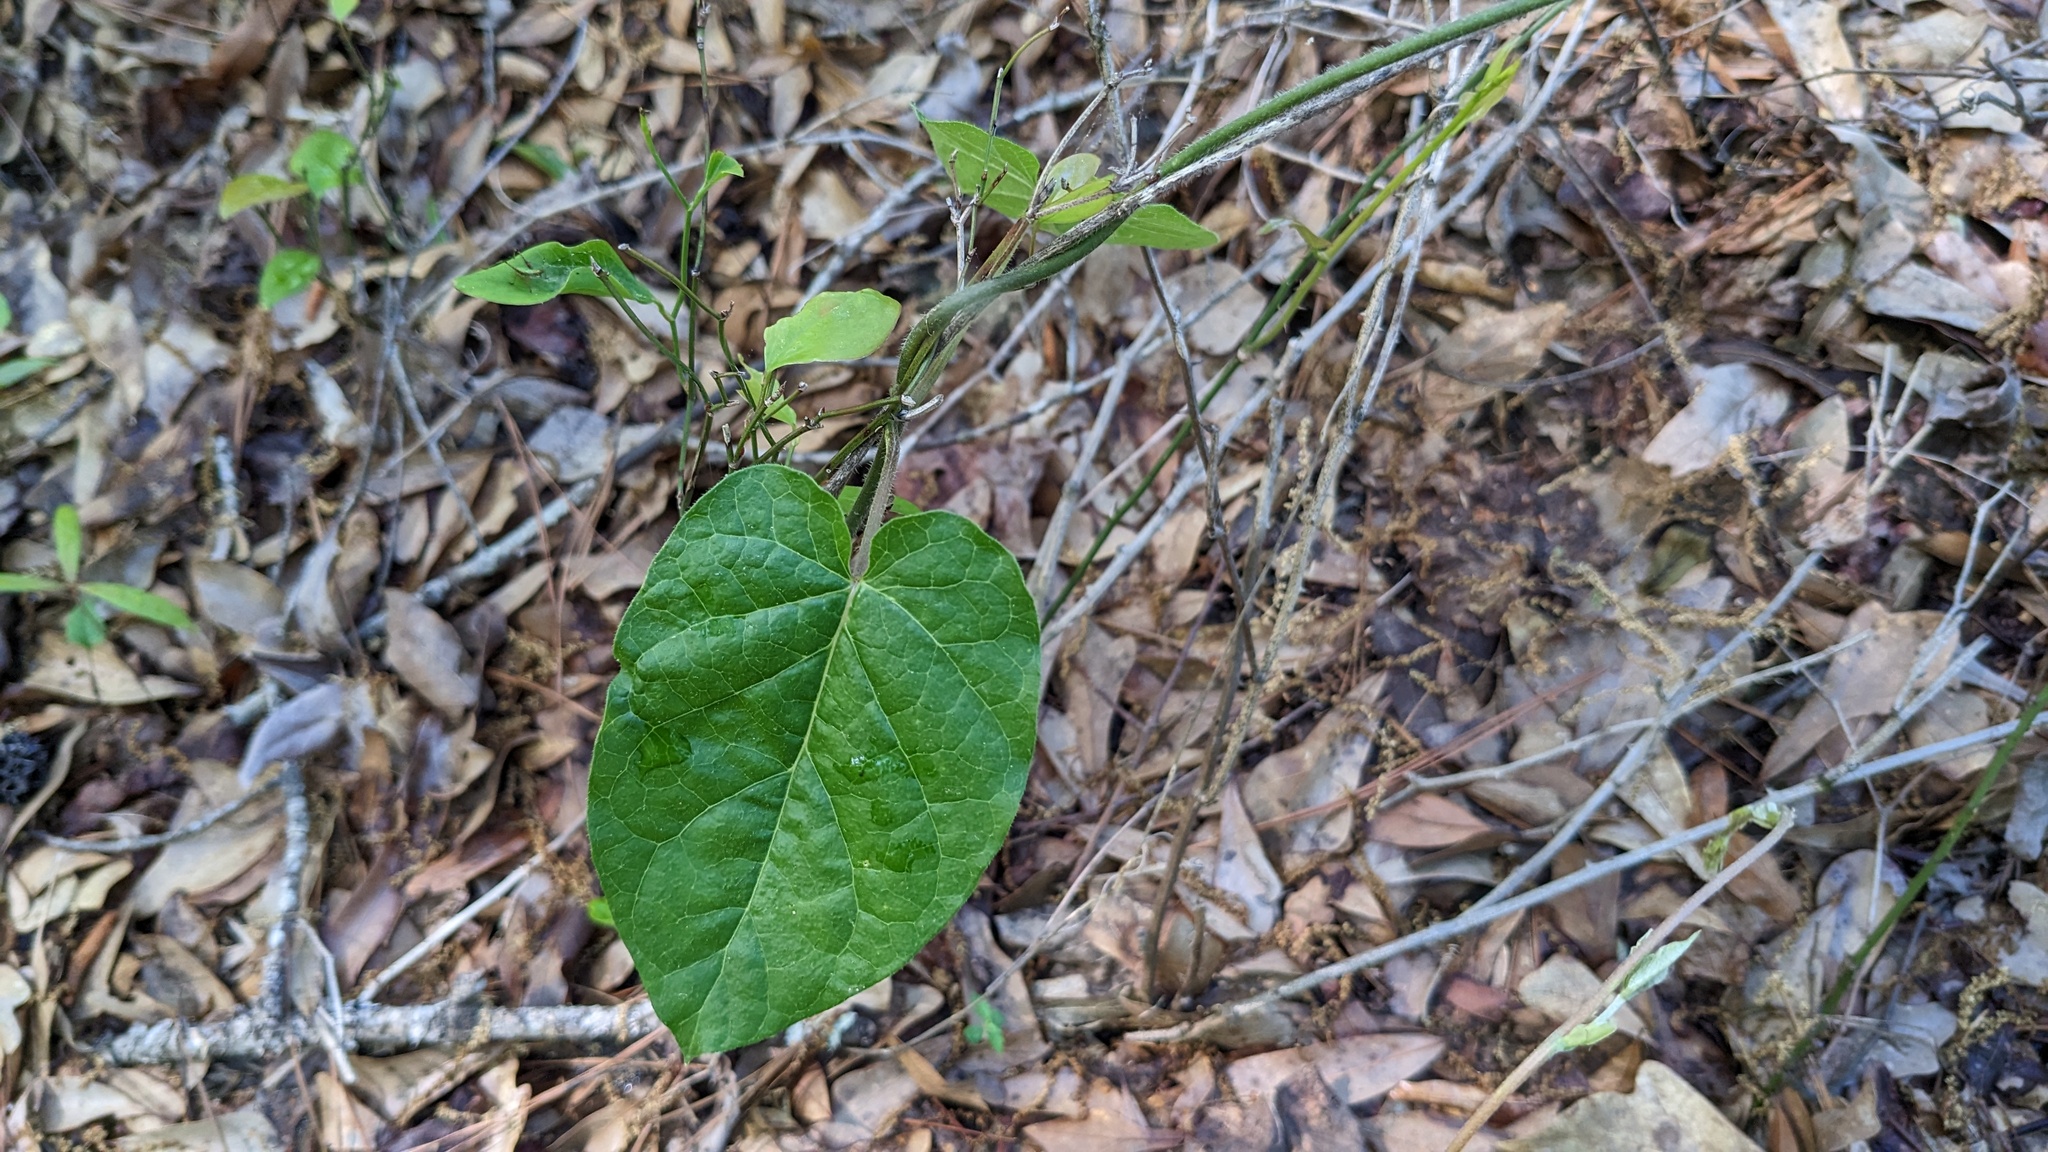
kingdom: Plantae
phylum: Tracheophyta
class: Magnoliopsida
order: Gentianales
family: Apocynaceae
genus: Gonolobus
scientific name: Gonolobus suberosus
